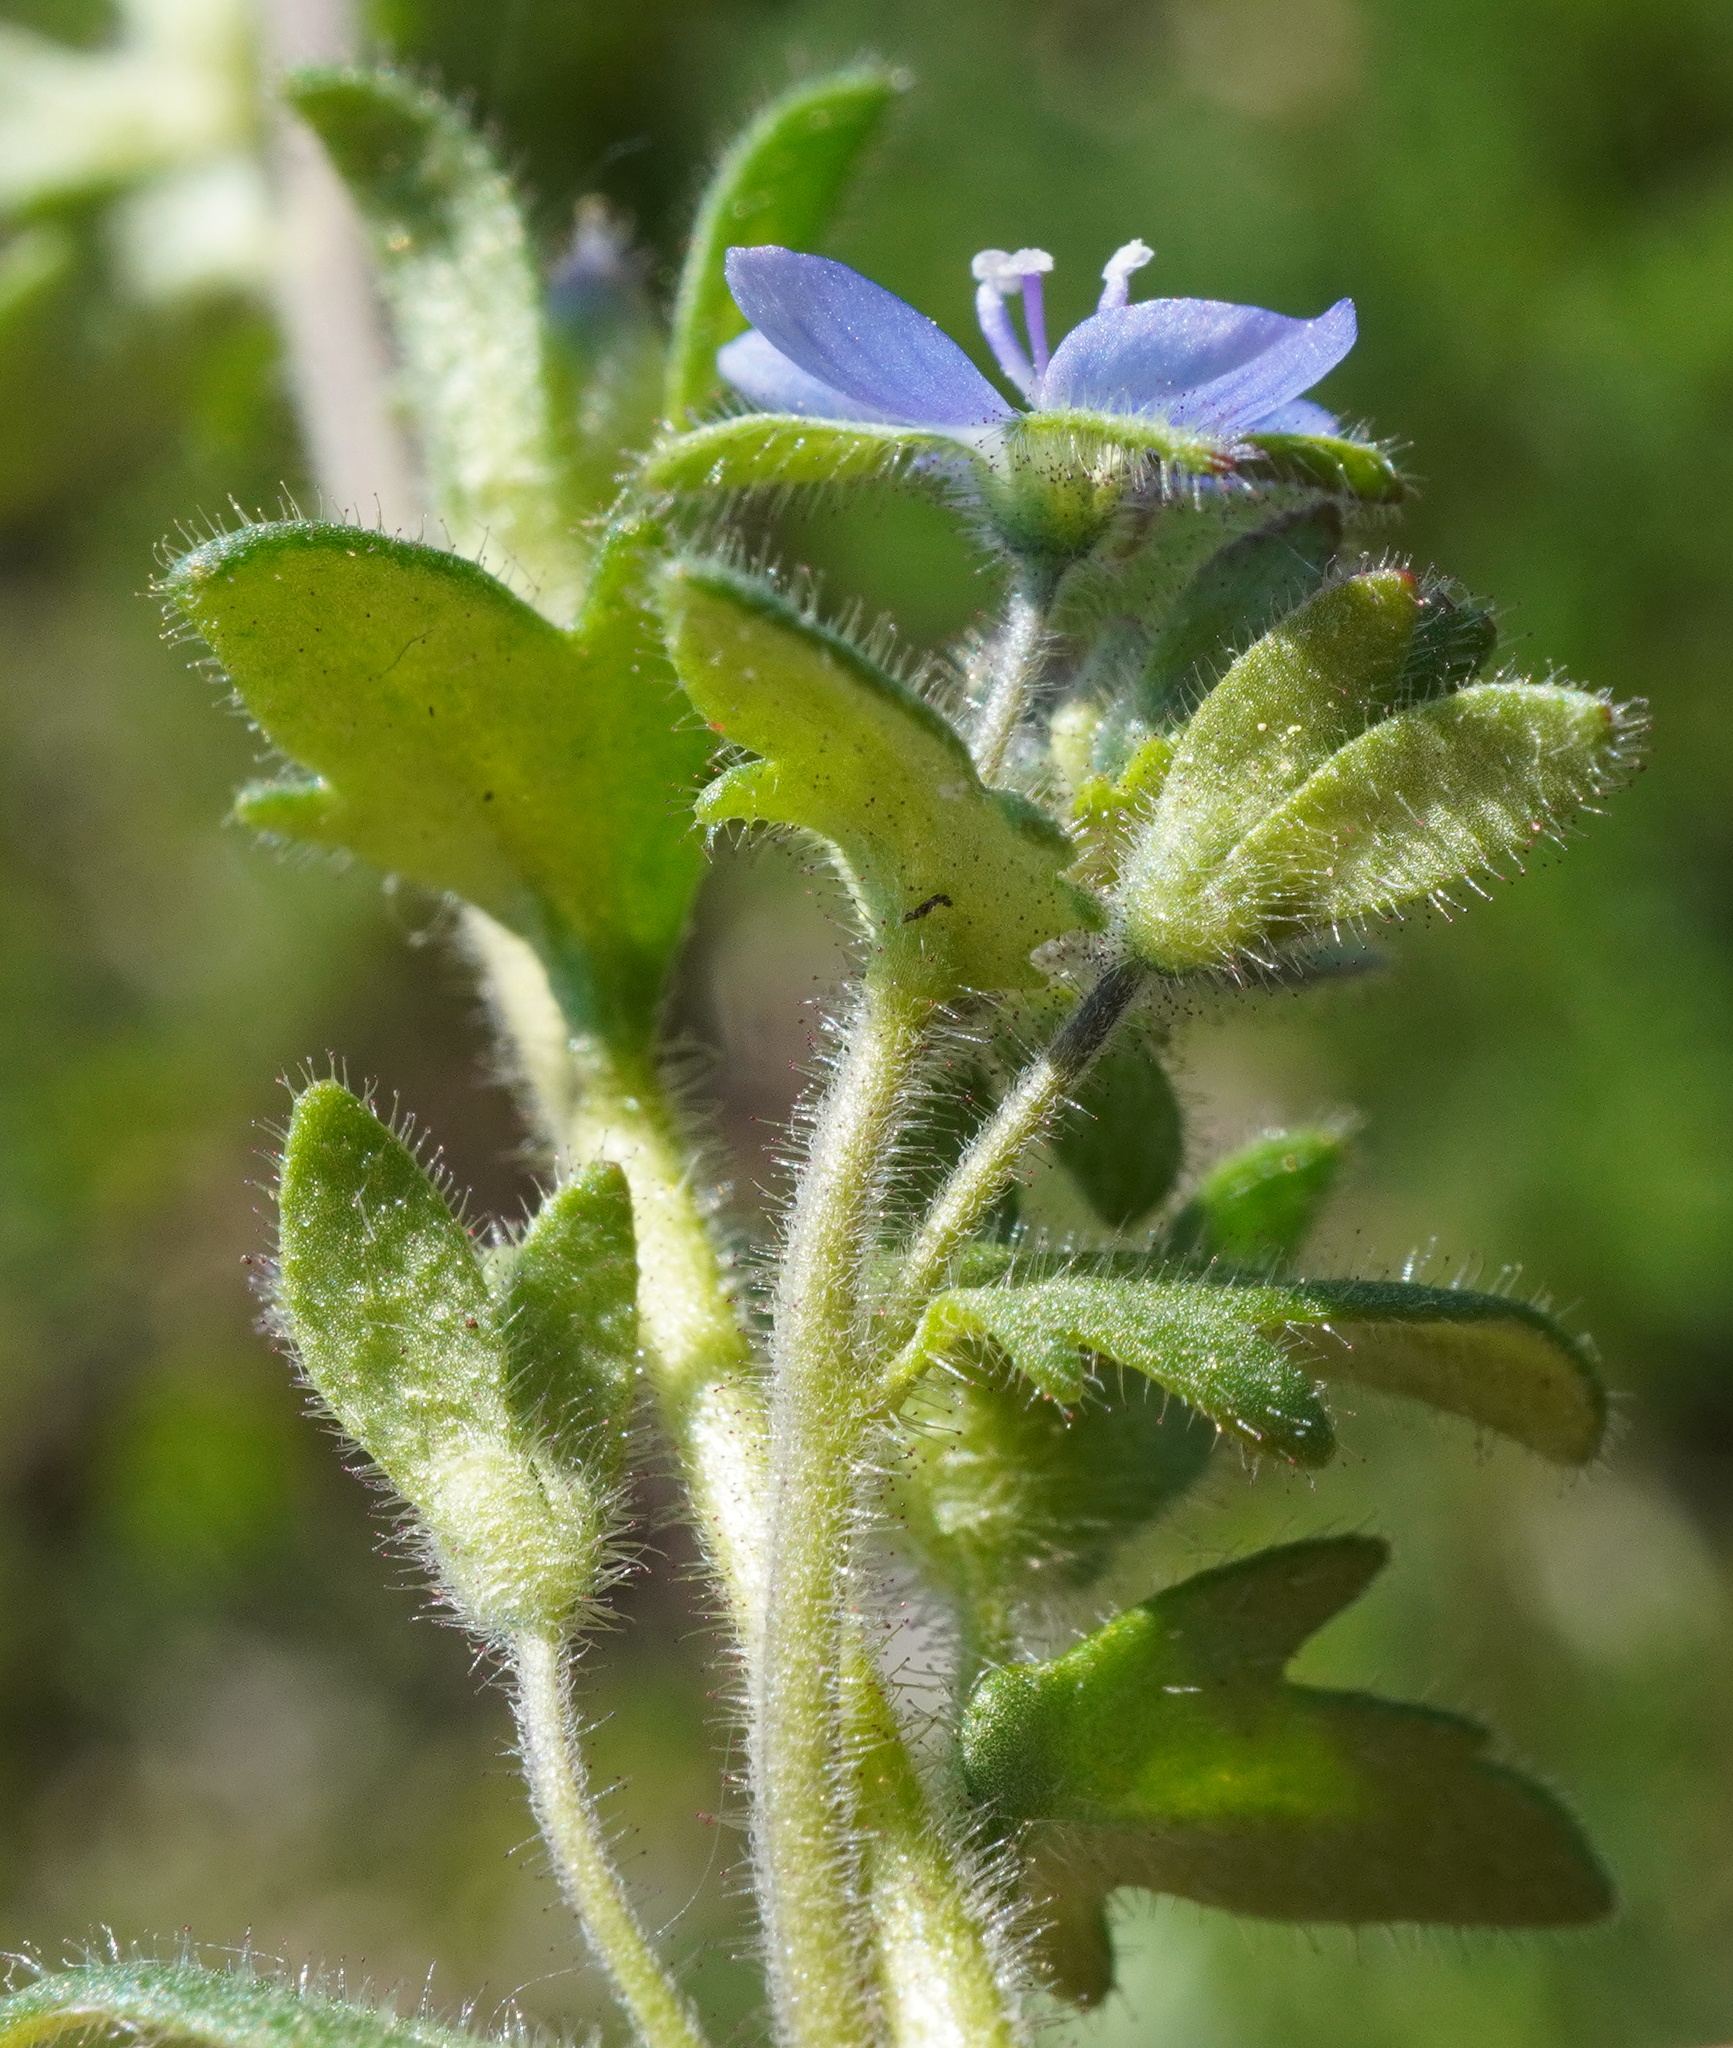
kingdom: Plantae
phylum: Tracheophyta
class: Magnoliopsida
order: Lamiales
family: Plantaginaceae
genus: Veronica
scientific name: Veronica praecox
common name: Breckland speedwell
